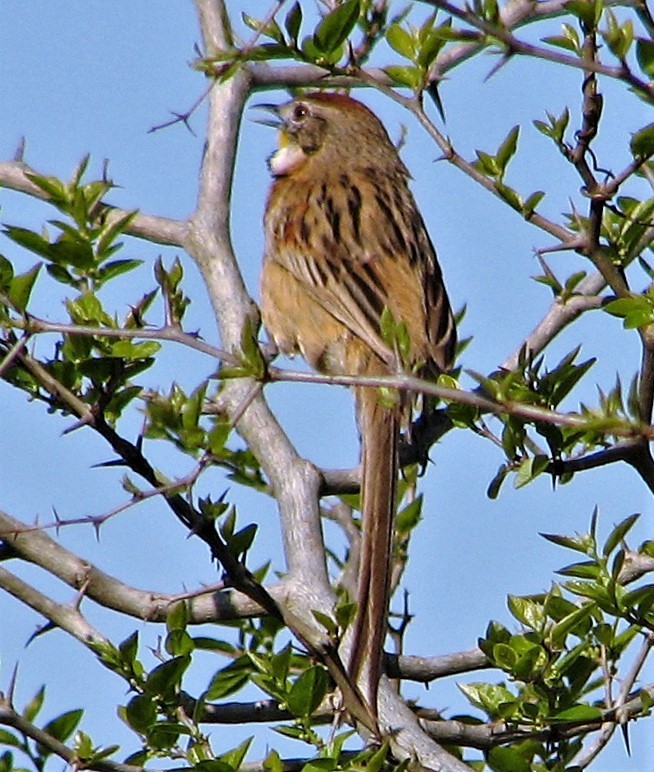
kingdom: Animalia
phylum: Chordata
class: Aves
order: Passeriformes
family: Furnariidae
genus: Schoeniophylax
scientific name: Schoeniophylax phryganophilus
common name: Chotoy spinetail
